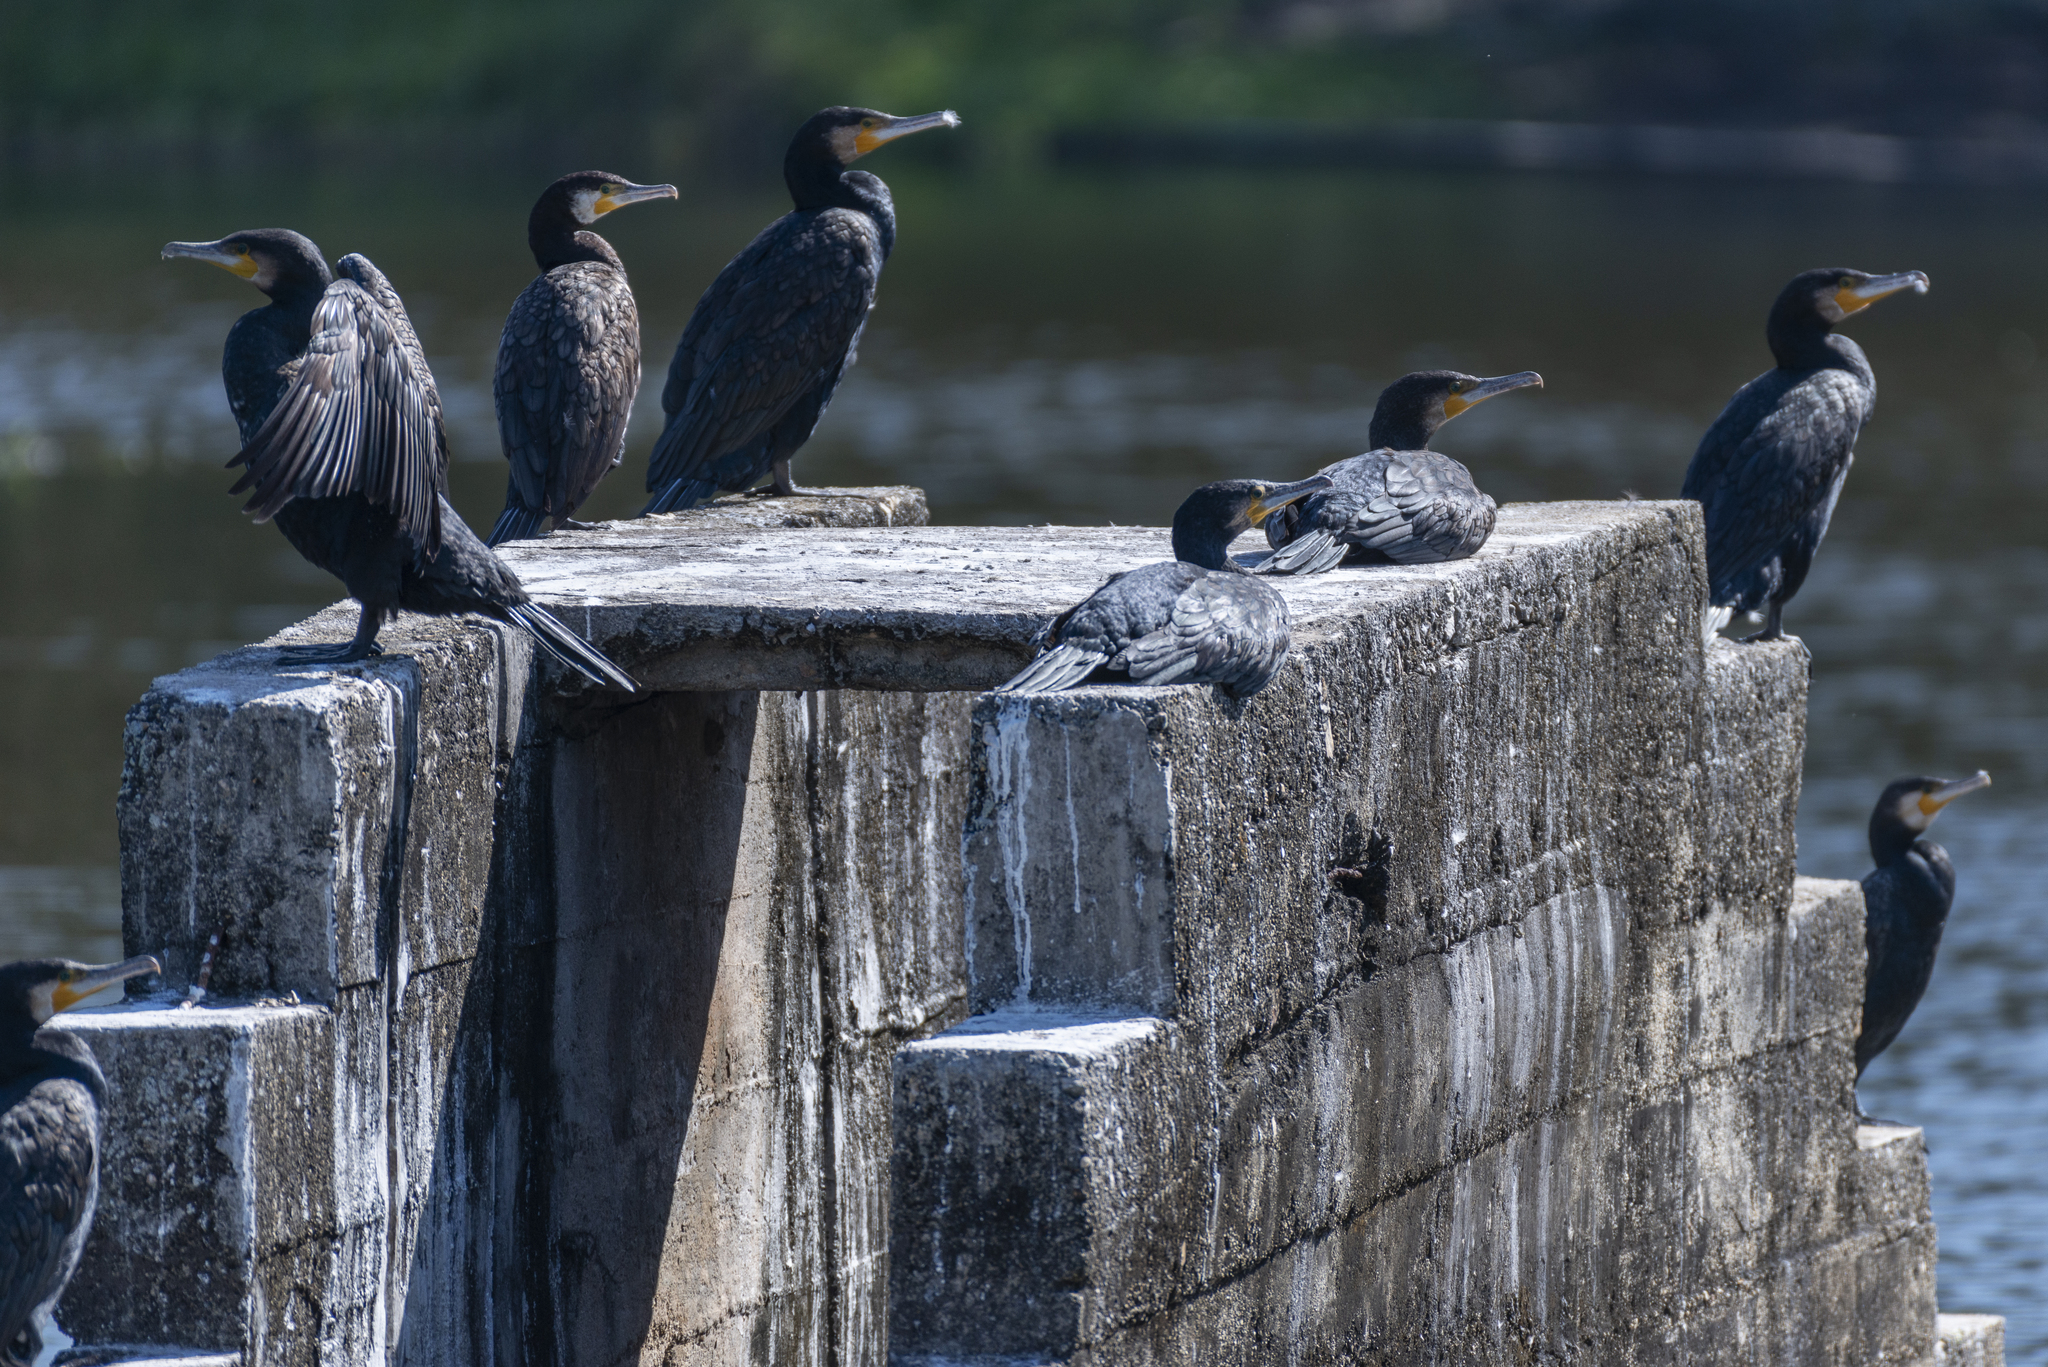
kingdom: Animalia
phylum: Chordata
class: Aves
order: Suliformes
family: Phalacrocoracidae
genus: Phalacrocorax
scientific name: Phalacrocorax carbo
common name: Great cormorant
